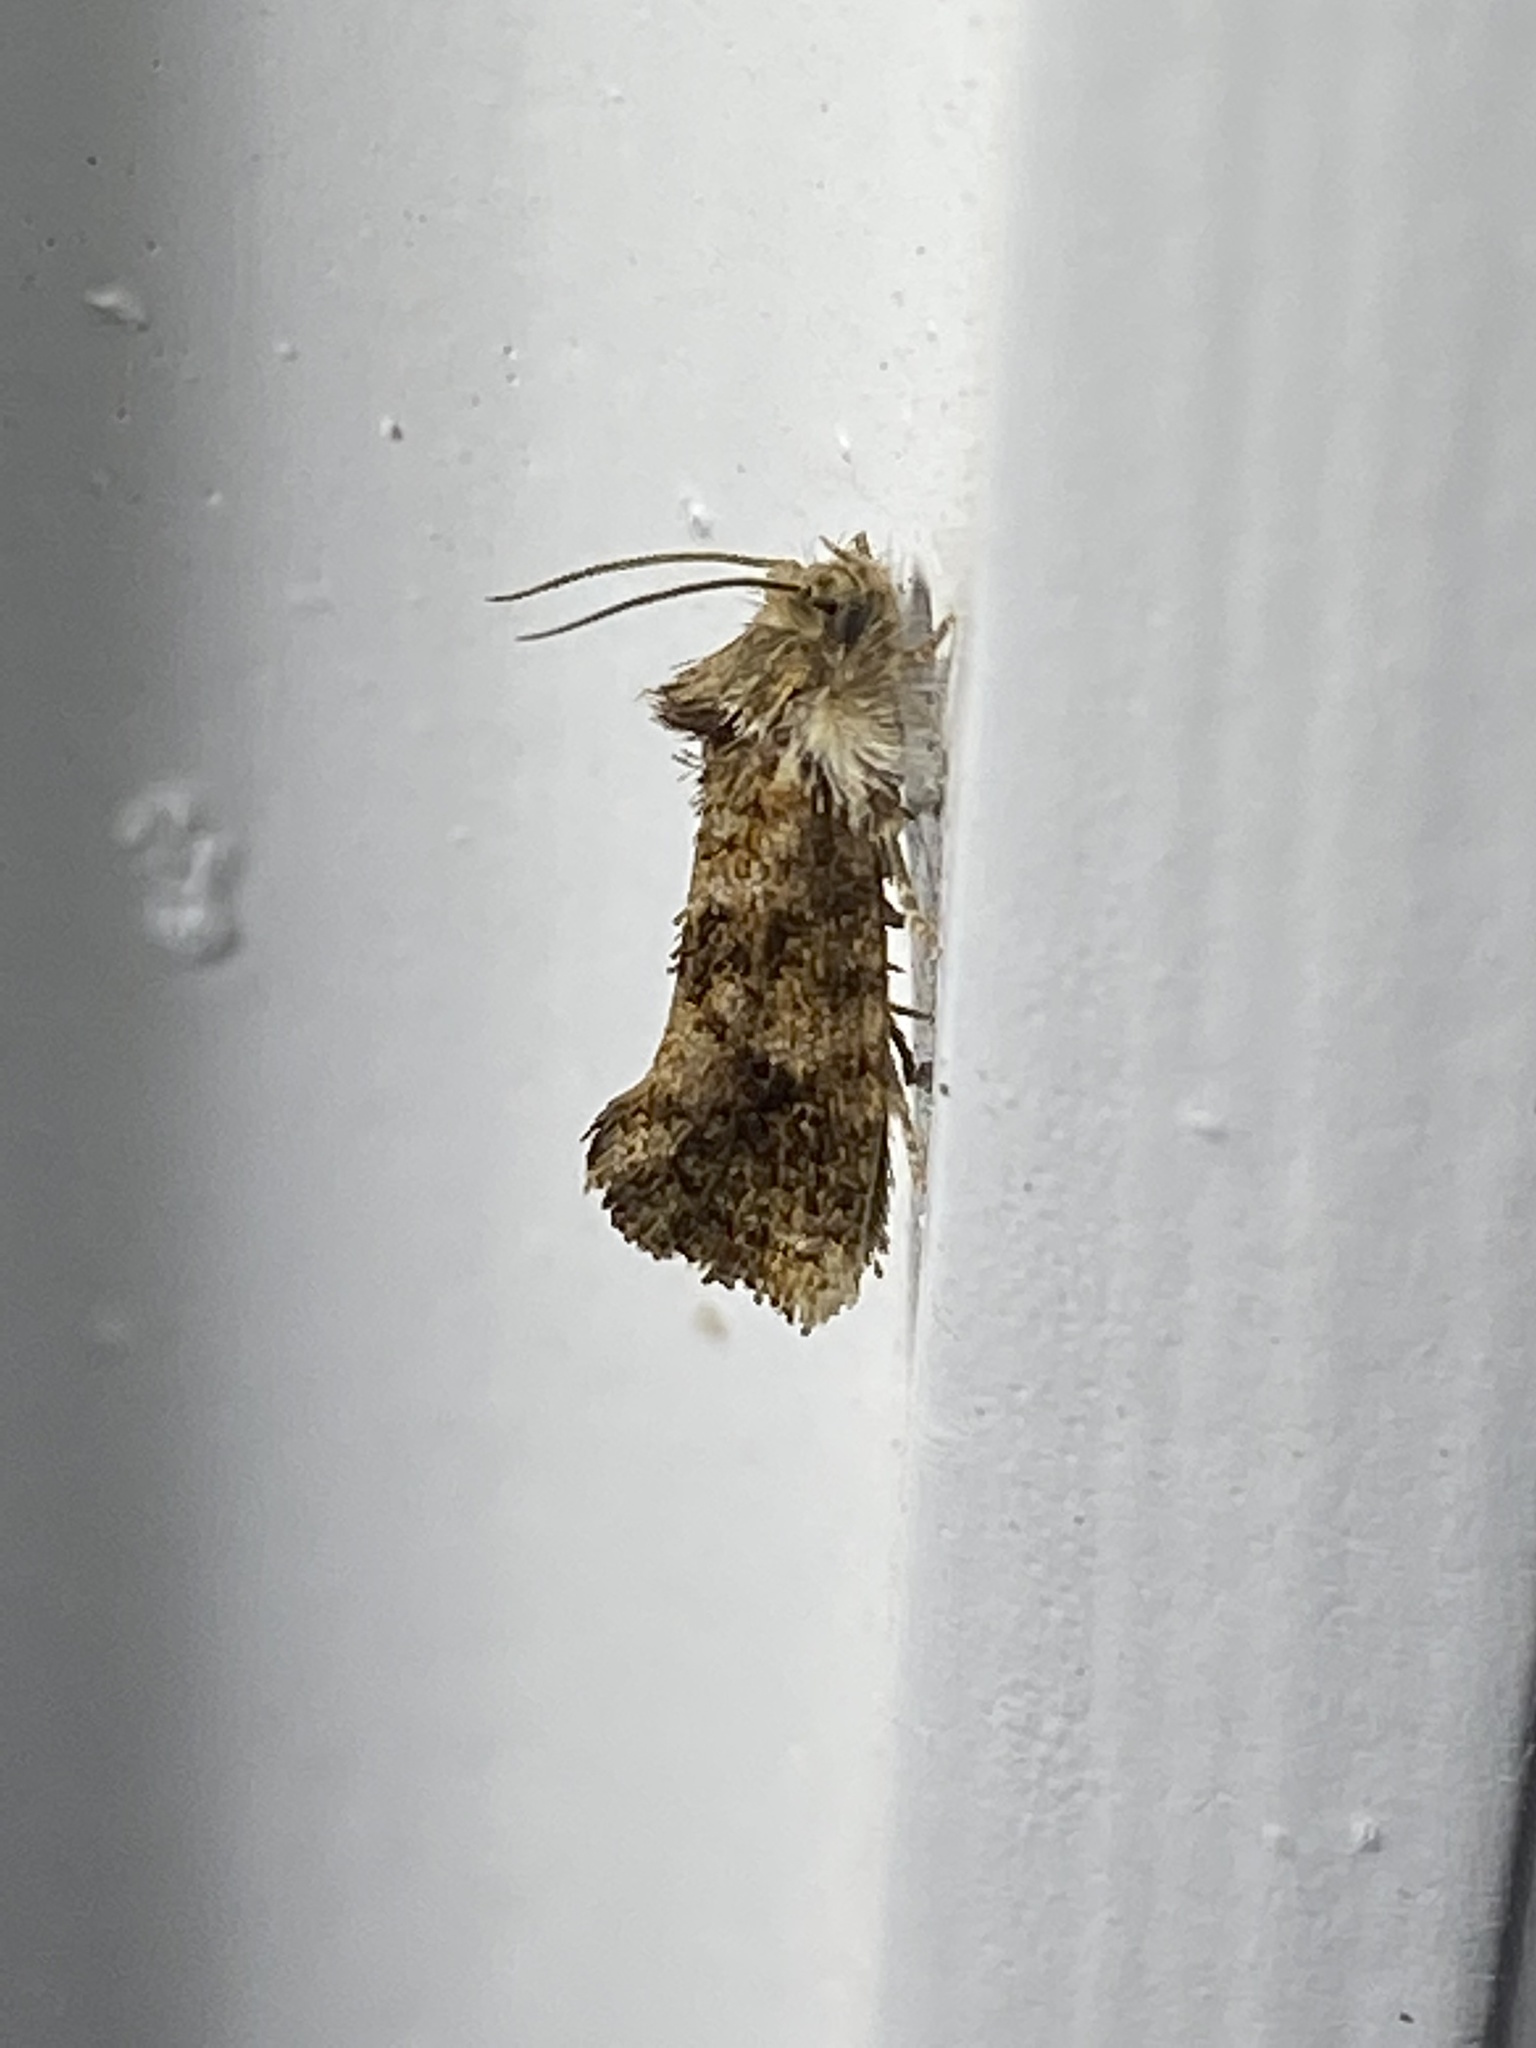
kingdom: Animalia
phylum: Arthropoda
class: Insecta
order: Lepidoptera
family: Tineidae
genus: Acrolophus
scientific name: Acrolophus panamae
